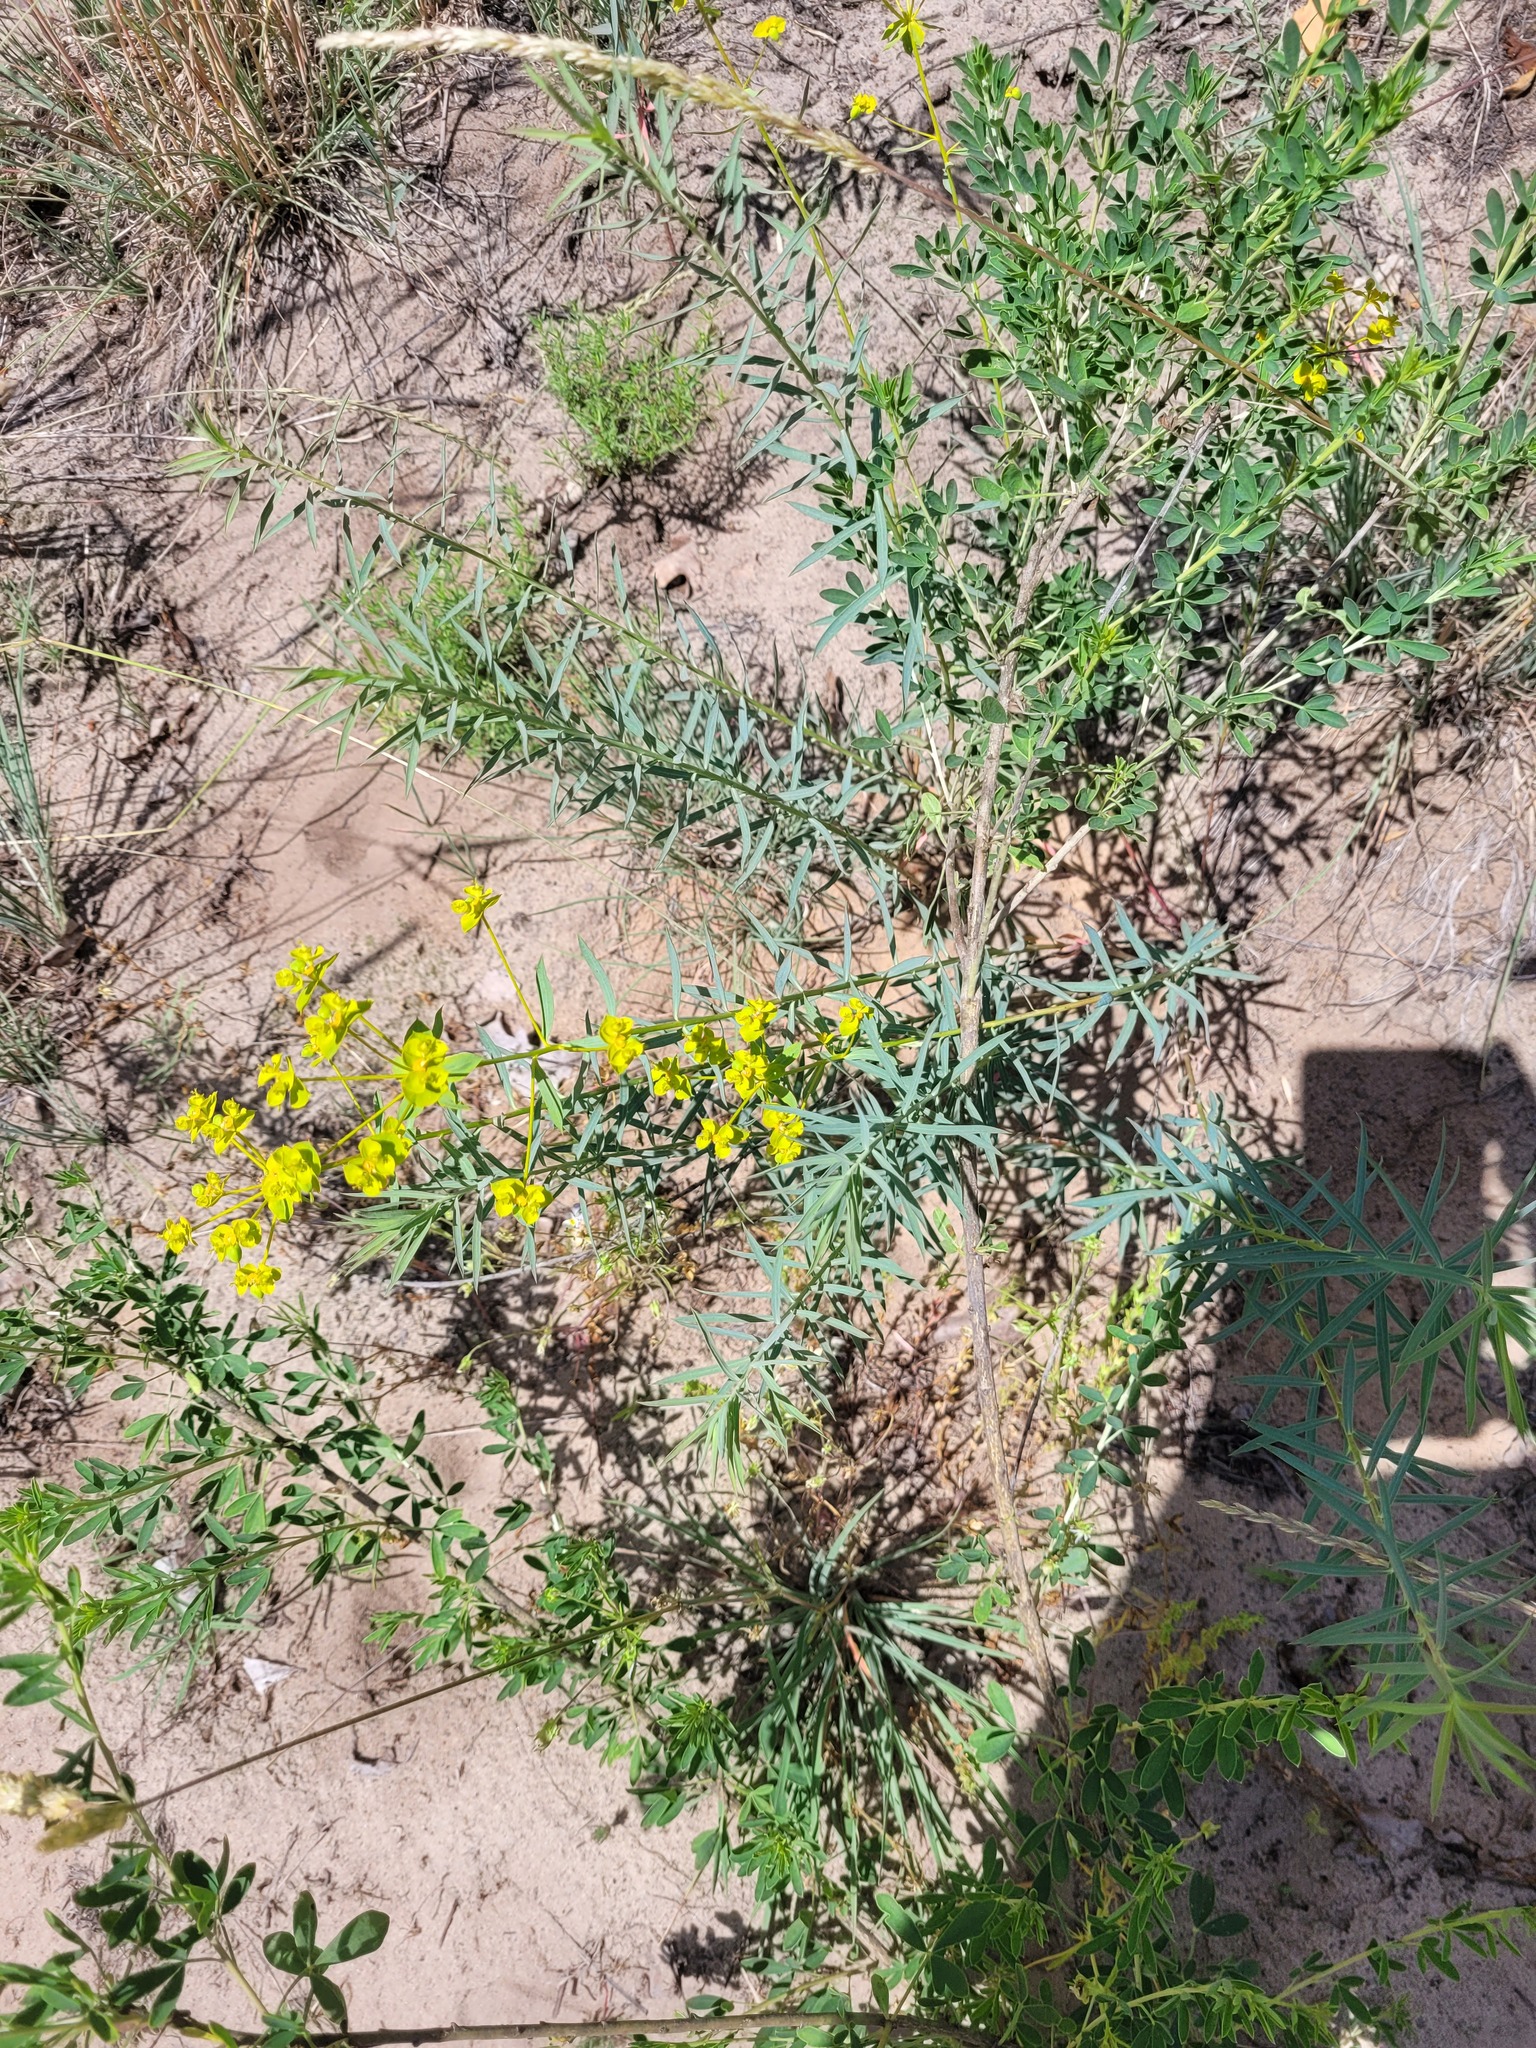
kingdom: Plantae
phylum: Tracheophyta
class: Magnoliopsida
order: Malpighiales
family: Euphorbiaceae
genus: Euphorbia
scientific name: Euphorbia seguieriana
